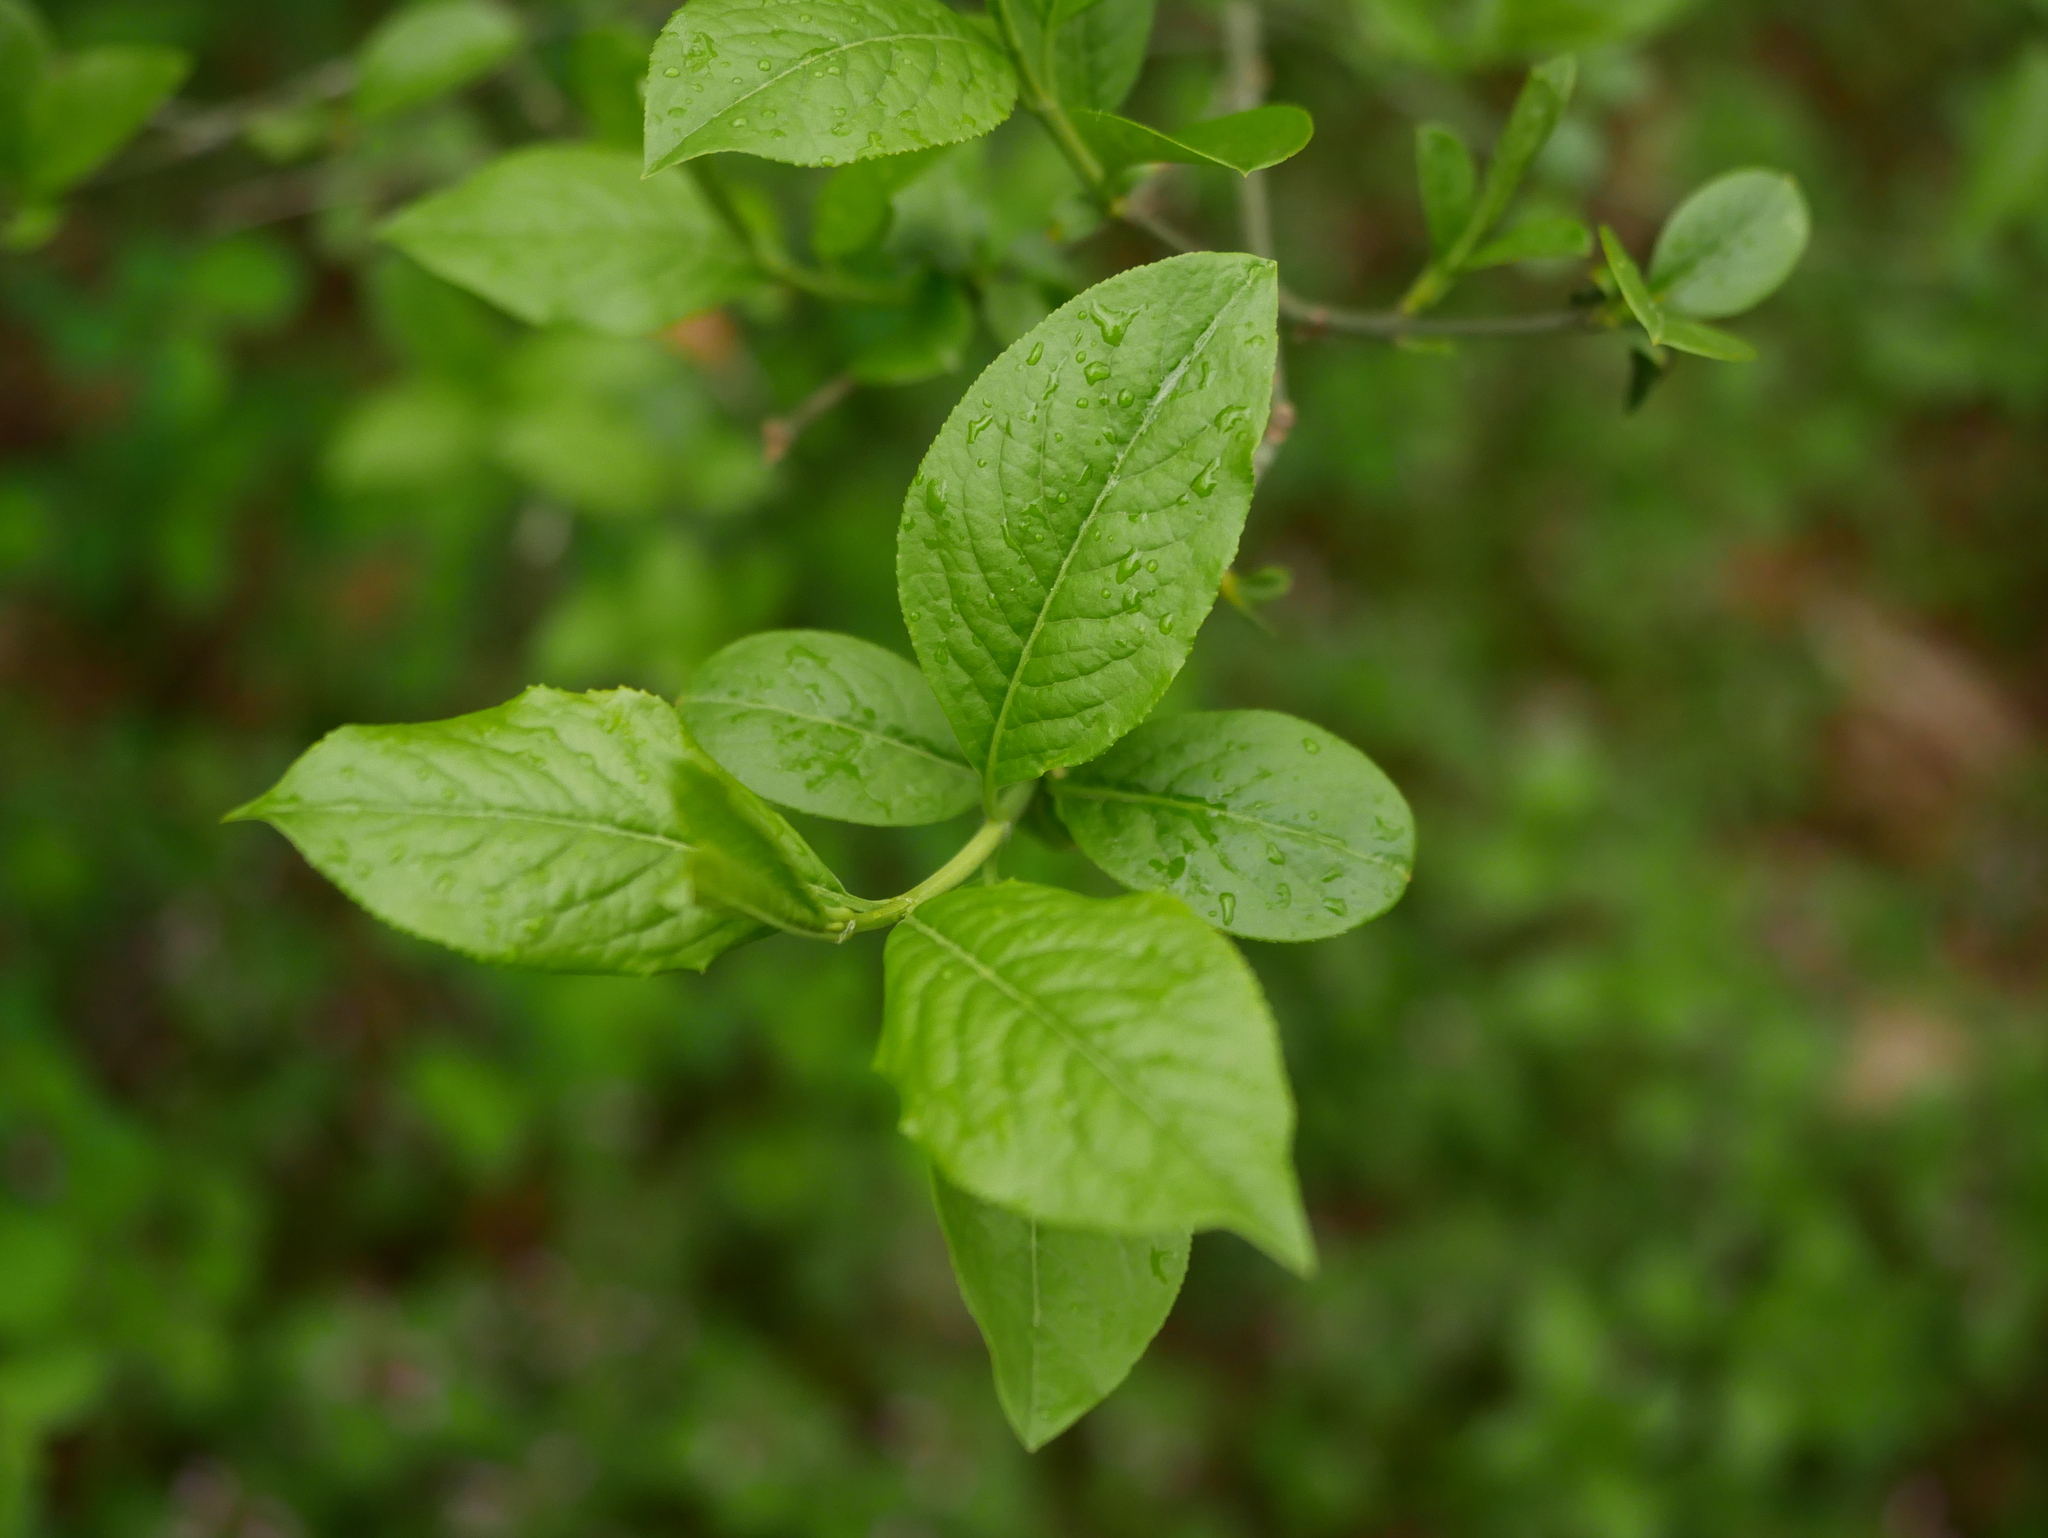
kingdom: Plantae
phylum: Tracheophyta
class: Magnoliopsida
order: Celastrales
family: Celastraceae
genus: Euonymus
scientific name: Euonymus europaeus
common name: Spindle
